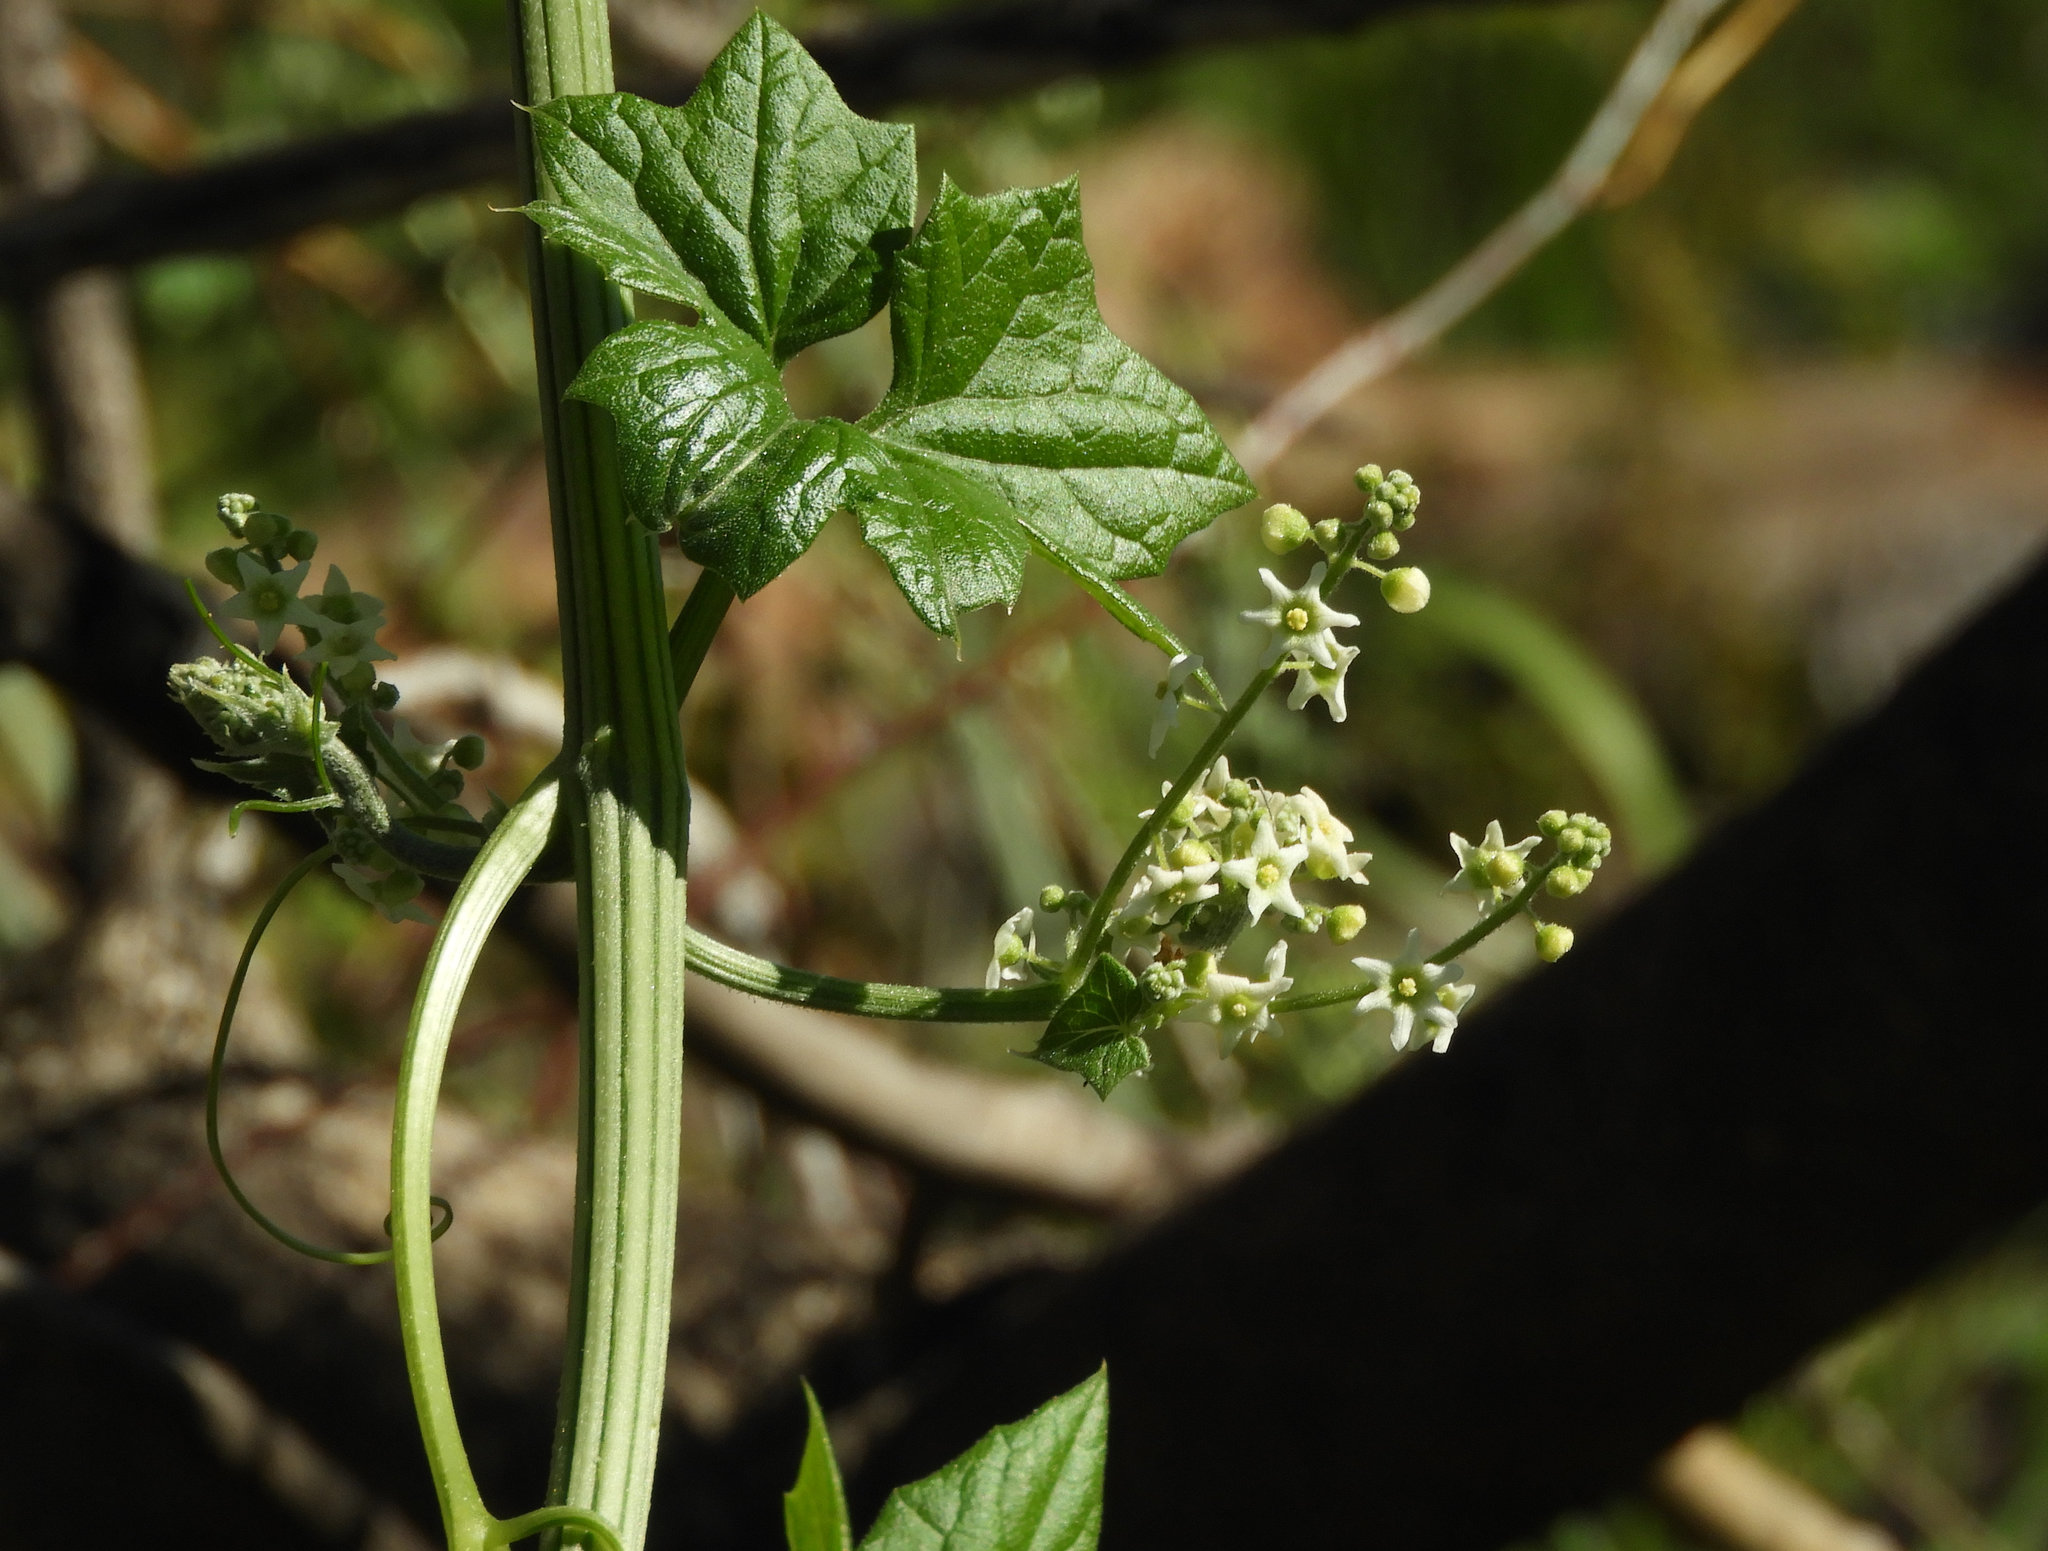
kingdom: Plantae
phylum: Tracheophyta
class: Magnoliopsida
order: Cucurbitales
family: Cucurbitaceae
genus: Marah
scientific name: Marah fabacea
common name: California manroot
